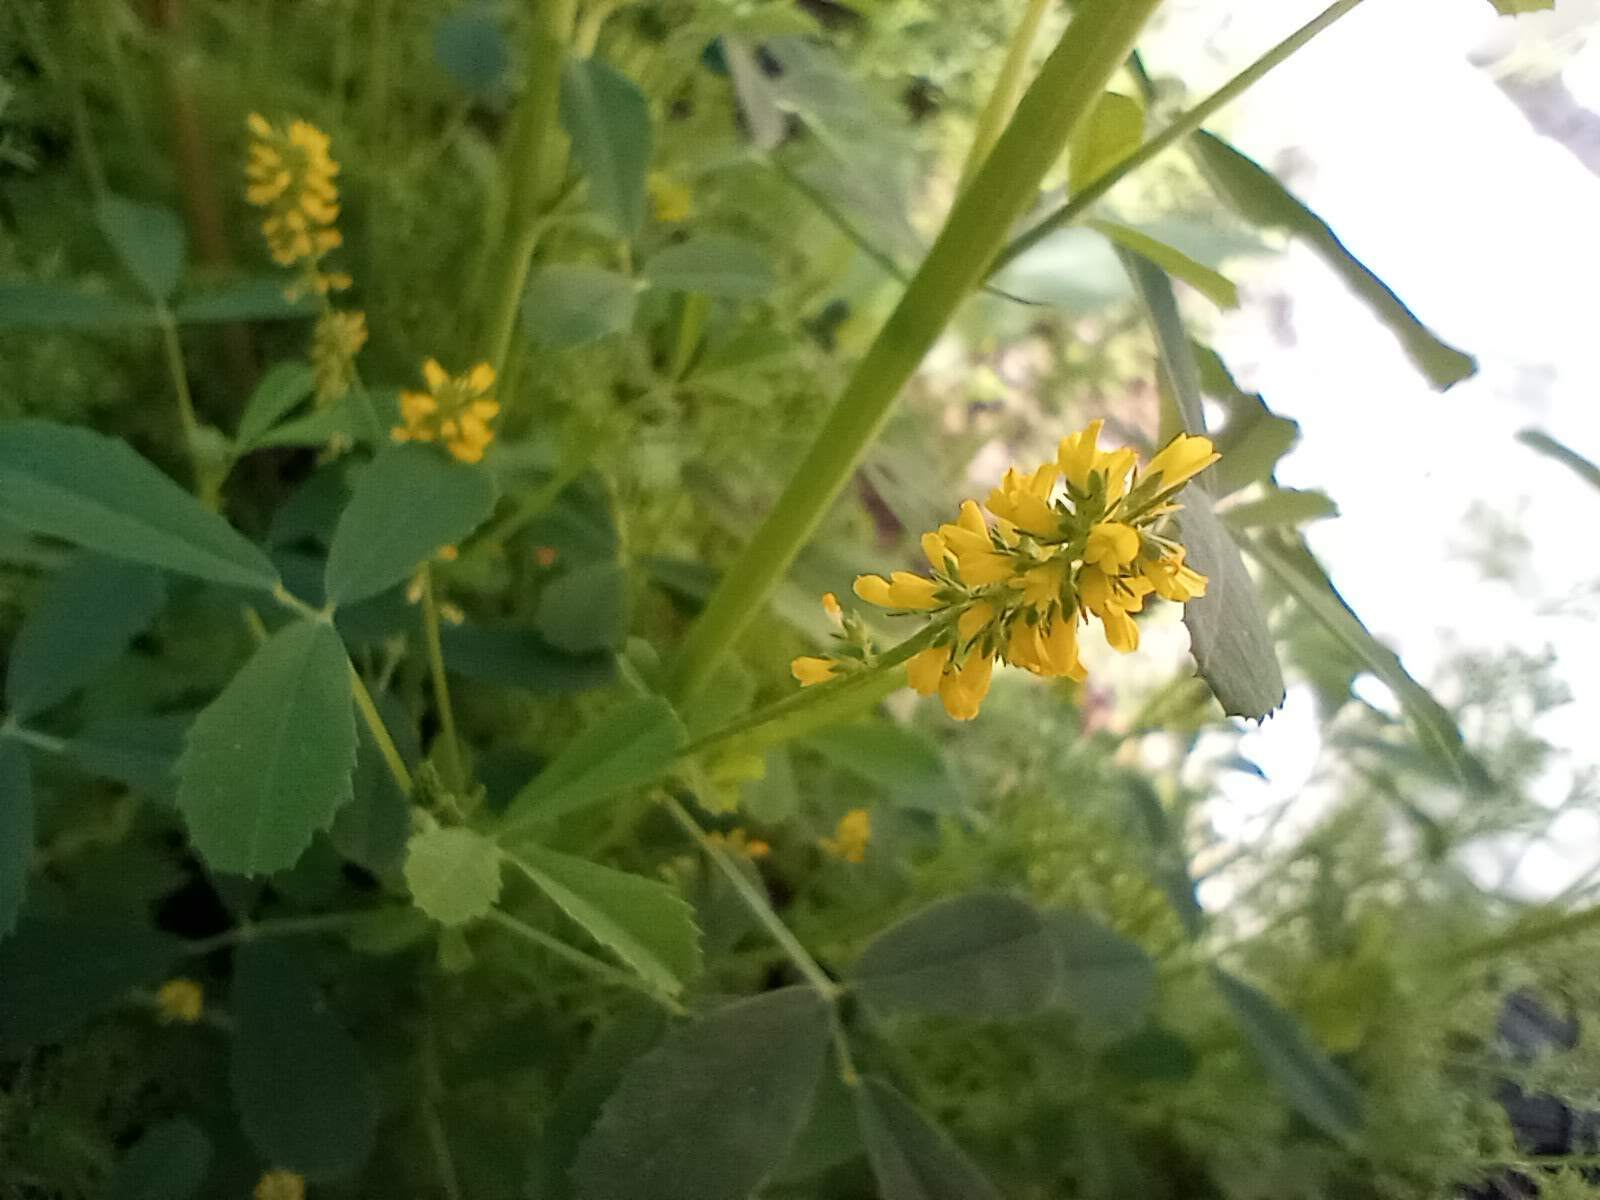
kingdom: Plantae
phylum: Tracheophyta
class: Magnoliopsida
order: Fabales
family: Fabaceae
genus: Melilotus
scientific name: Melilotus indicus
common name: Small melilot
